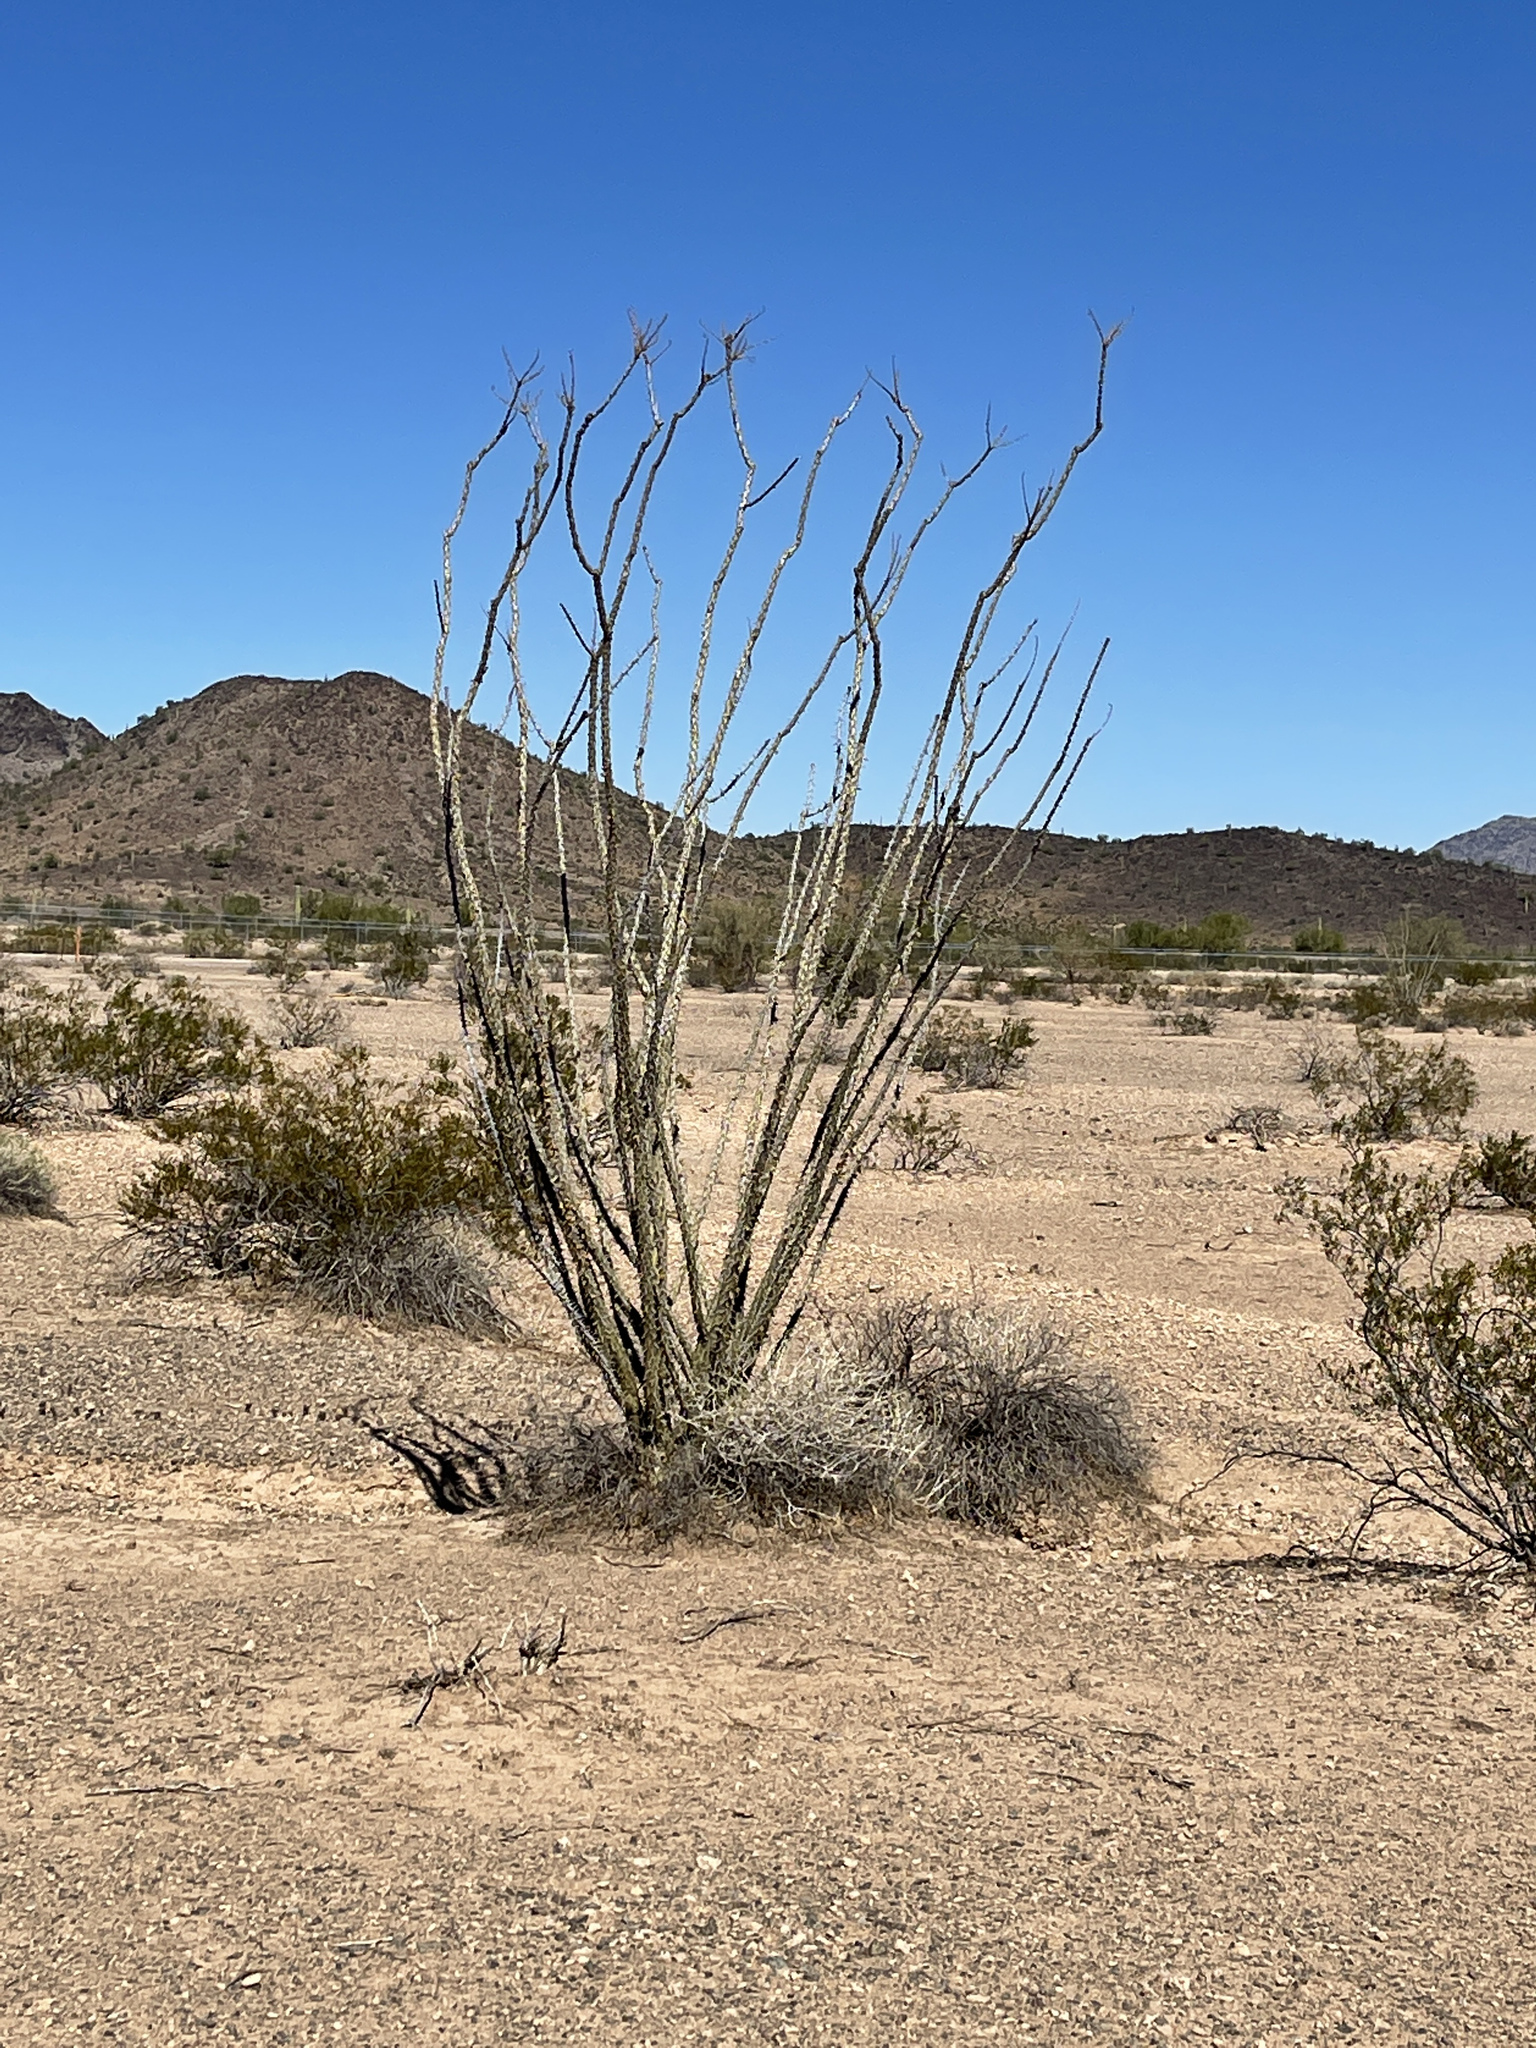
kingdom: Plantae
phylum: Tracheophyta
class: Magnoliopsida
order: Ericales
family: Fouquieriaceae
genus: Fouquieria
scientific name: Fouquieria splendens
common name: Vine-cactus
